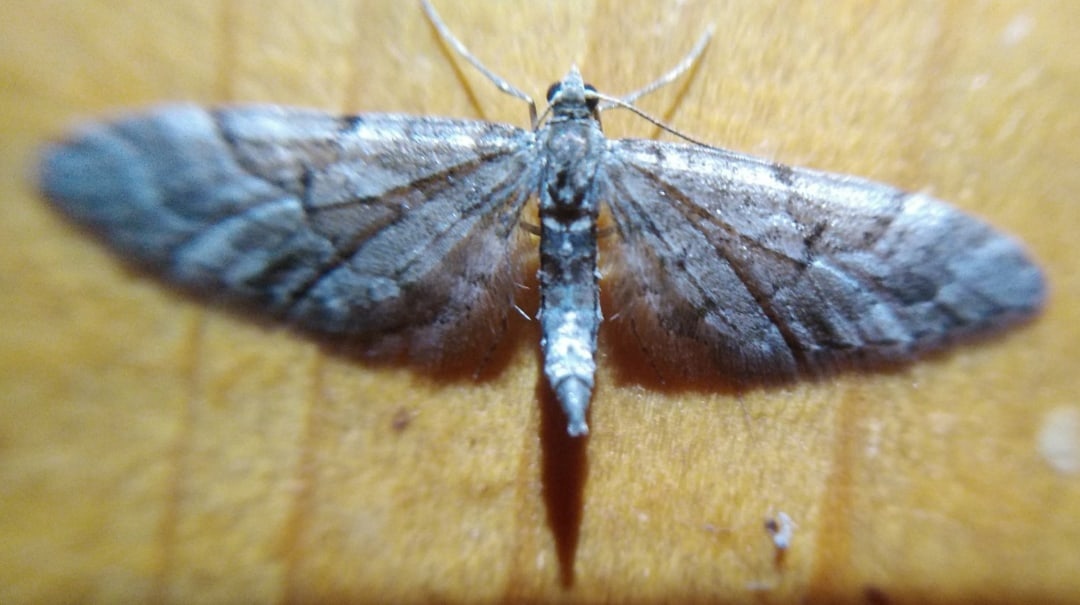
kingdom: Animalia
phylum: Arthropoda
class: Insecta
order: Lepidoptera
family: Geometridae
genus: Eupithecia
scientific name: Eupithecia lanceata
